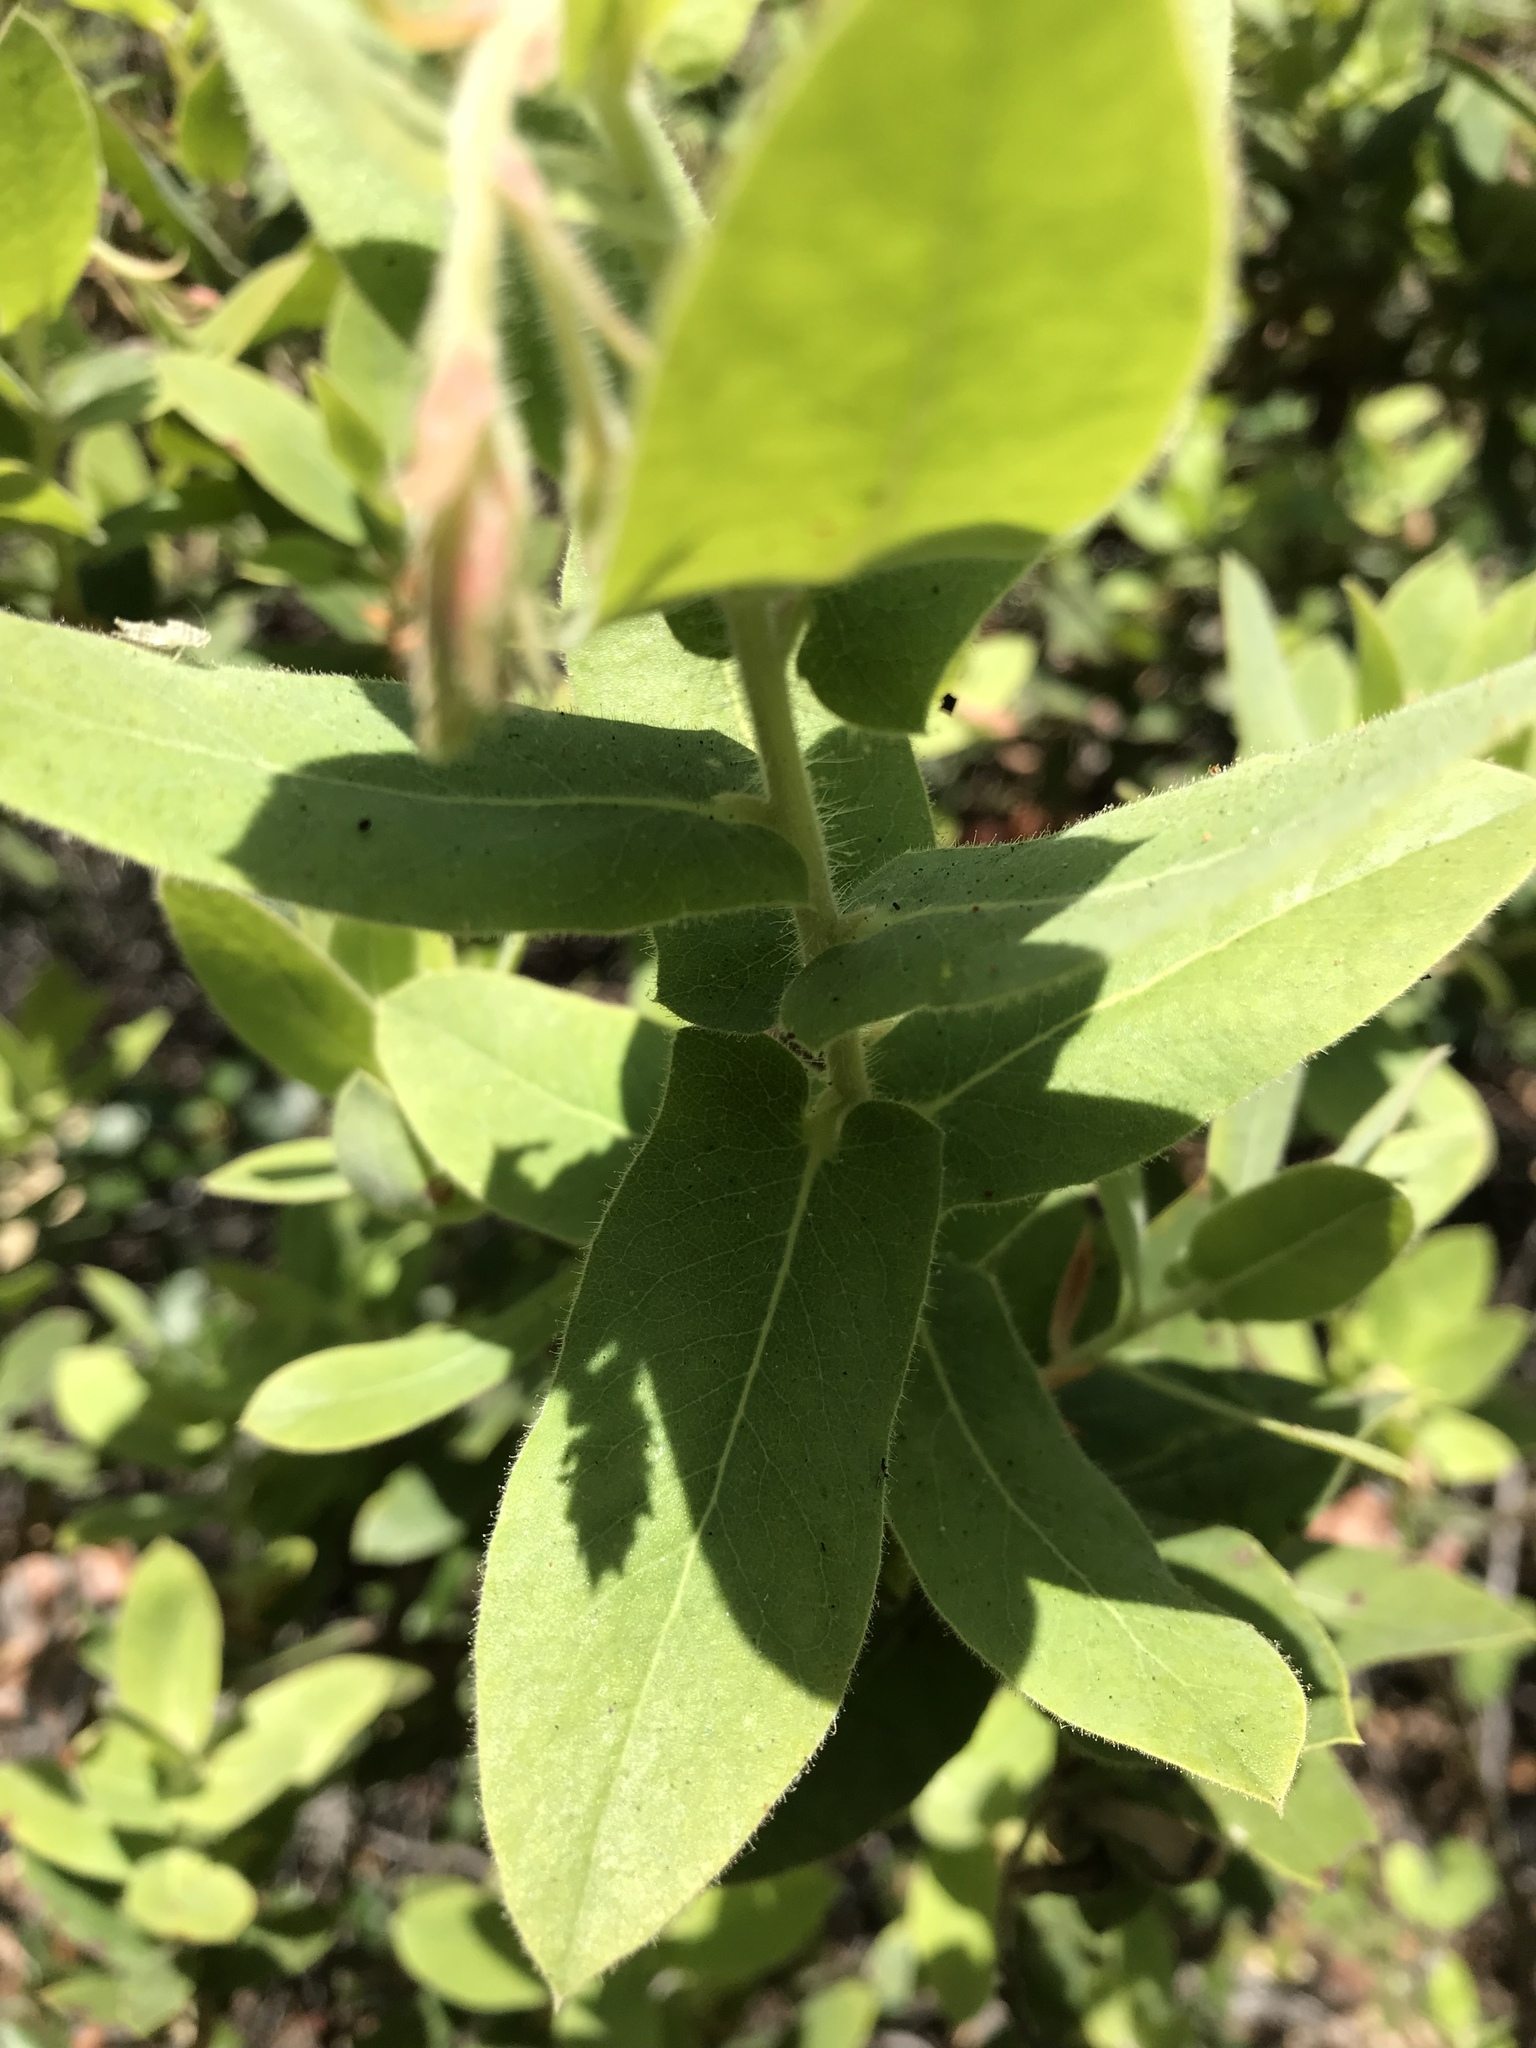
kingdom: Plantae
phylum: Tracheophyta
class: Magnoliopsida
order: Ericales
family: Ericaceae
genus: Arctostaphylos
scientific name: Arctostaphylos andersonii
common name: Santa cruz manzanita
